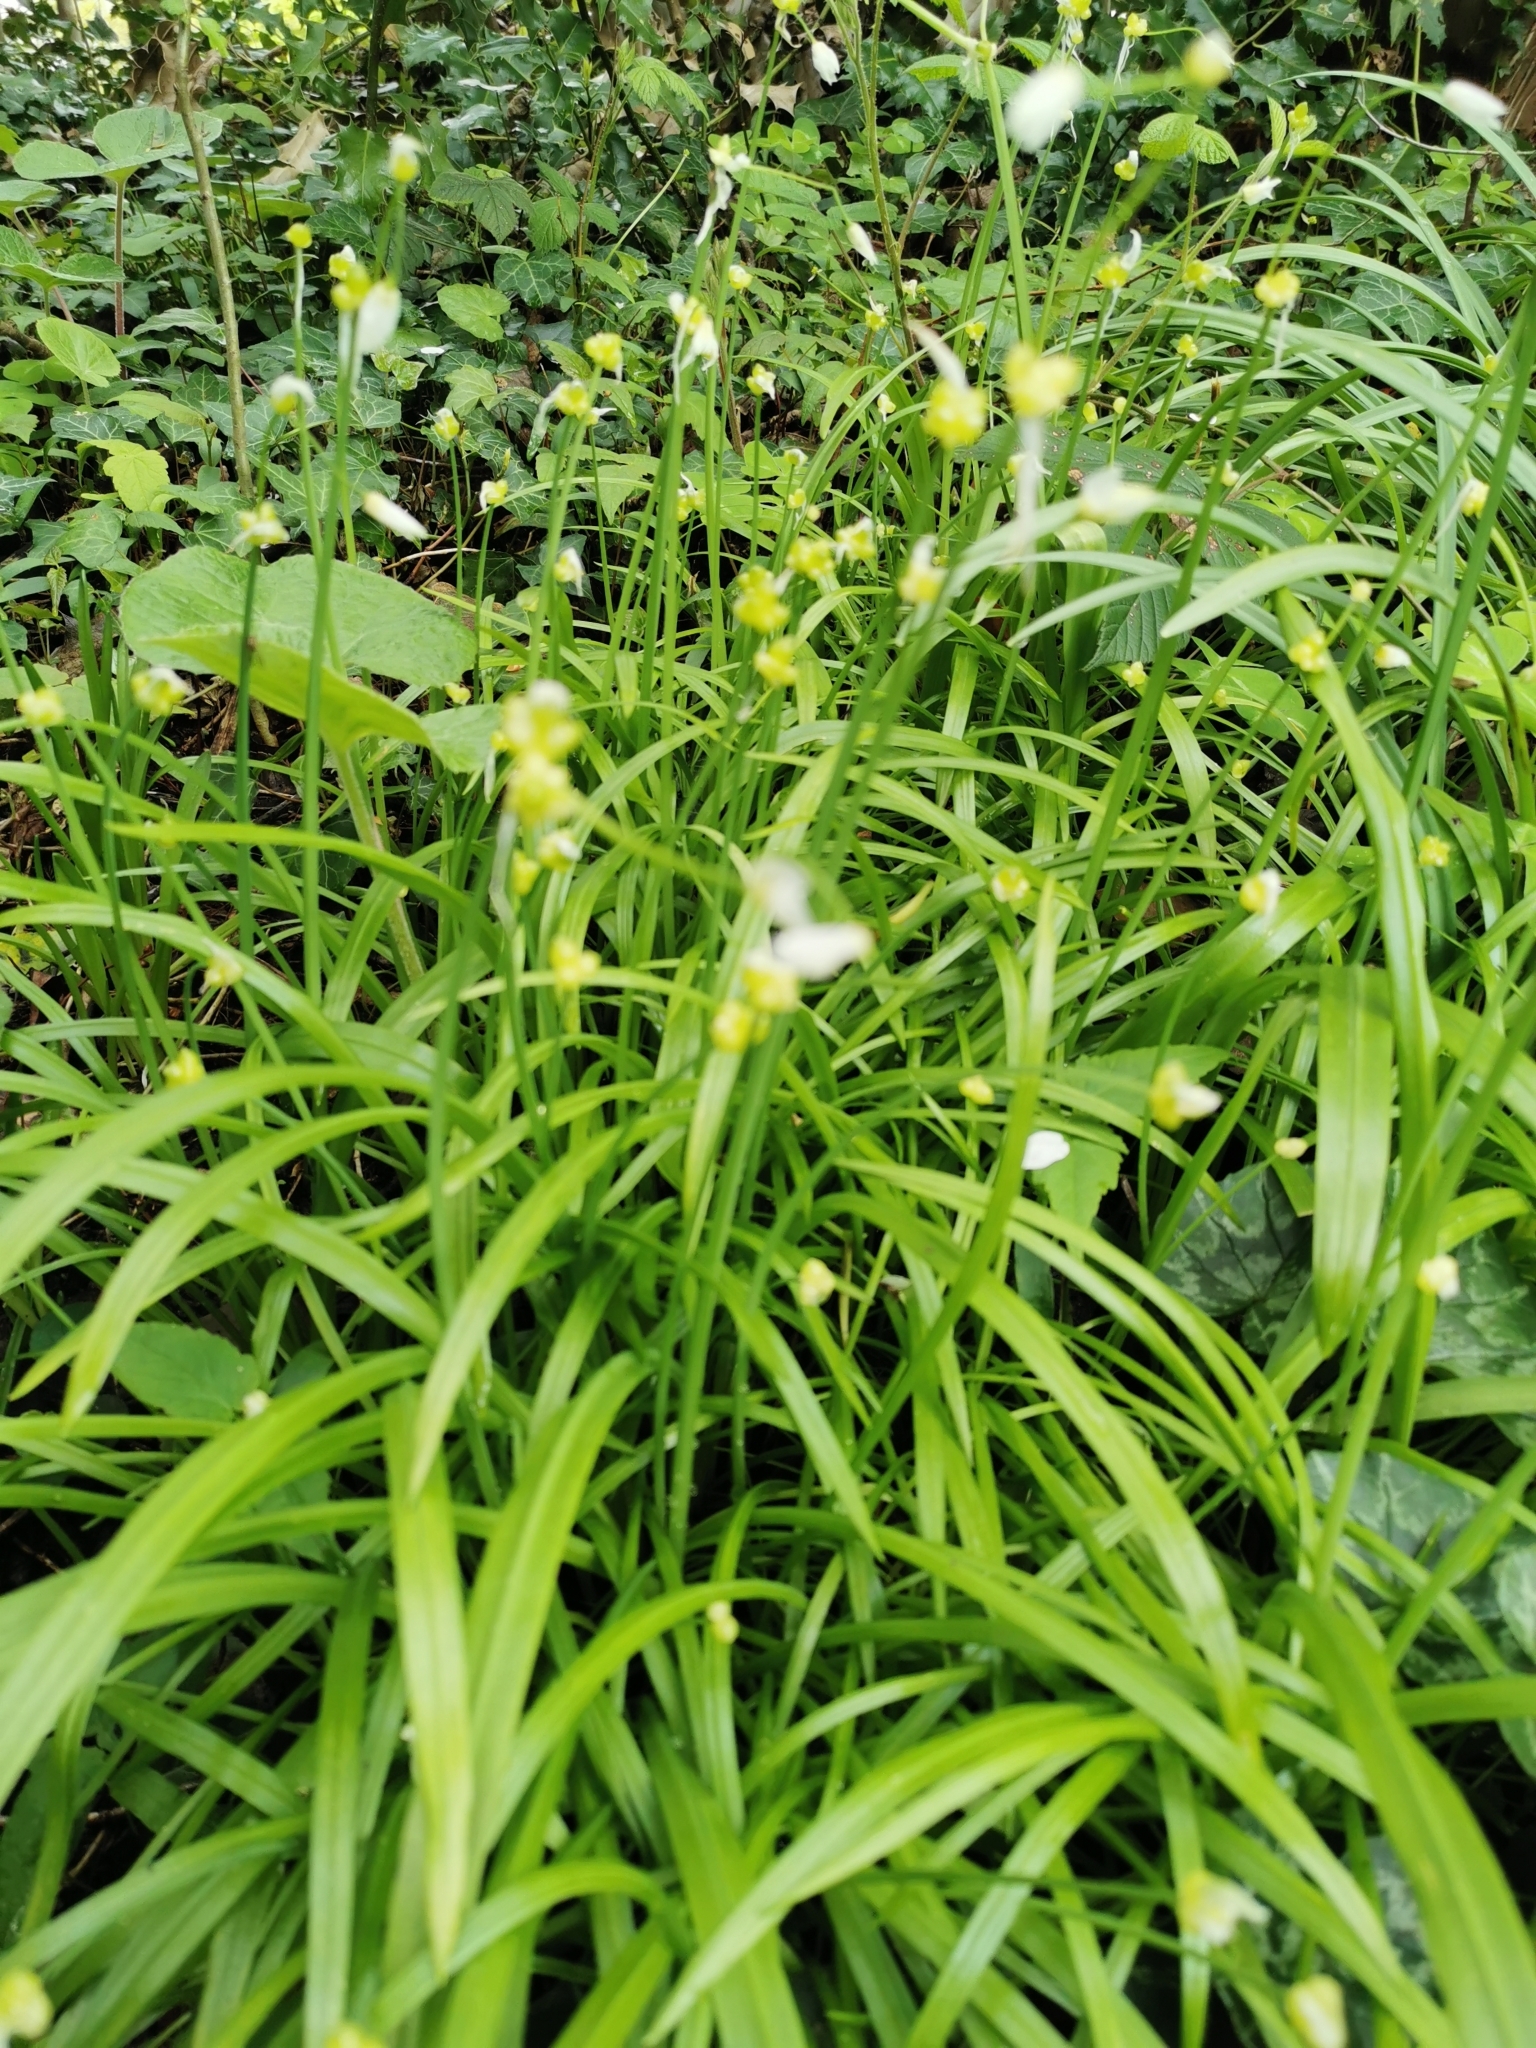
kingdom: Plantae
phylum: Tracheophyta
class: Liliopsida
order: Asparagales
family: Amaryllidaceae
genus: Allium
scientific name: Allium paradoxum
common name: Few-flowered garlic
